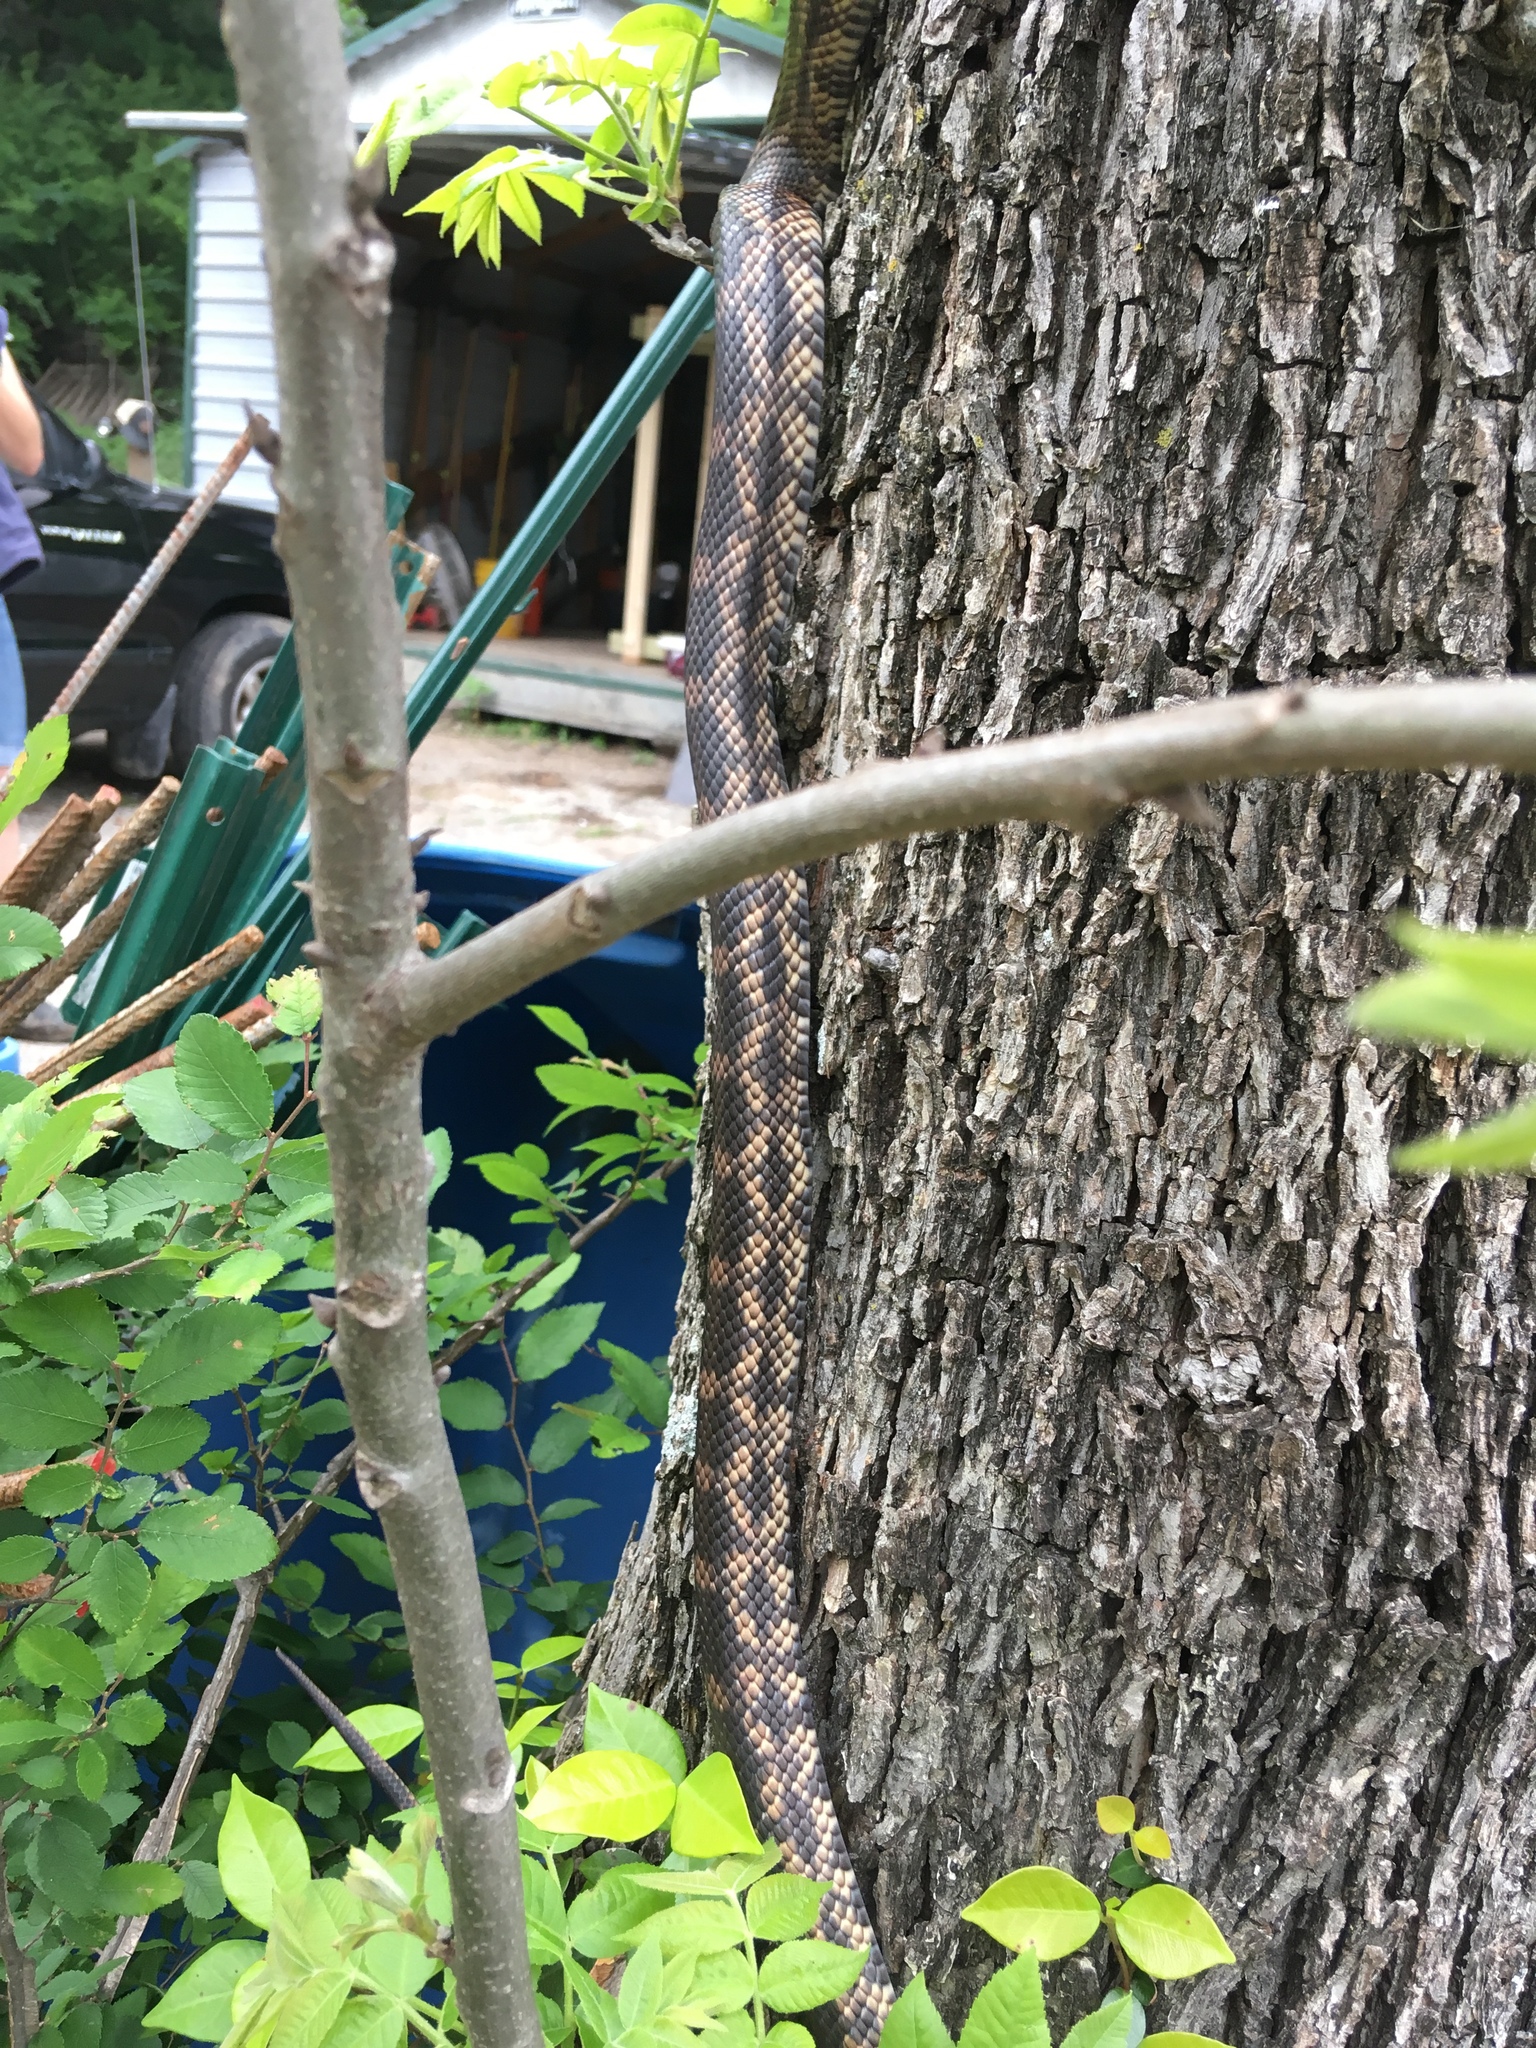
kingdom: Animalia
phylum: Chordata
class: Squamata
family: Colubridae
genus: Pantherophis
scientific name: Pantherophis obsoletus
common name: Black rat snake
